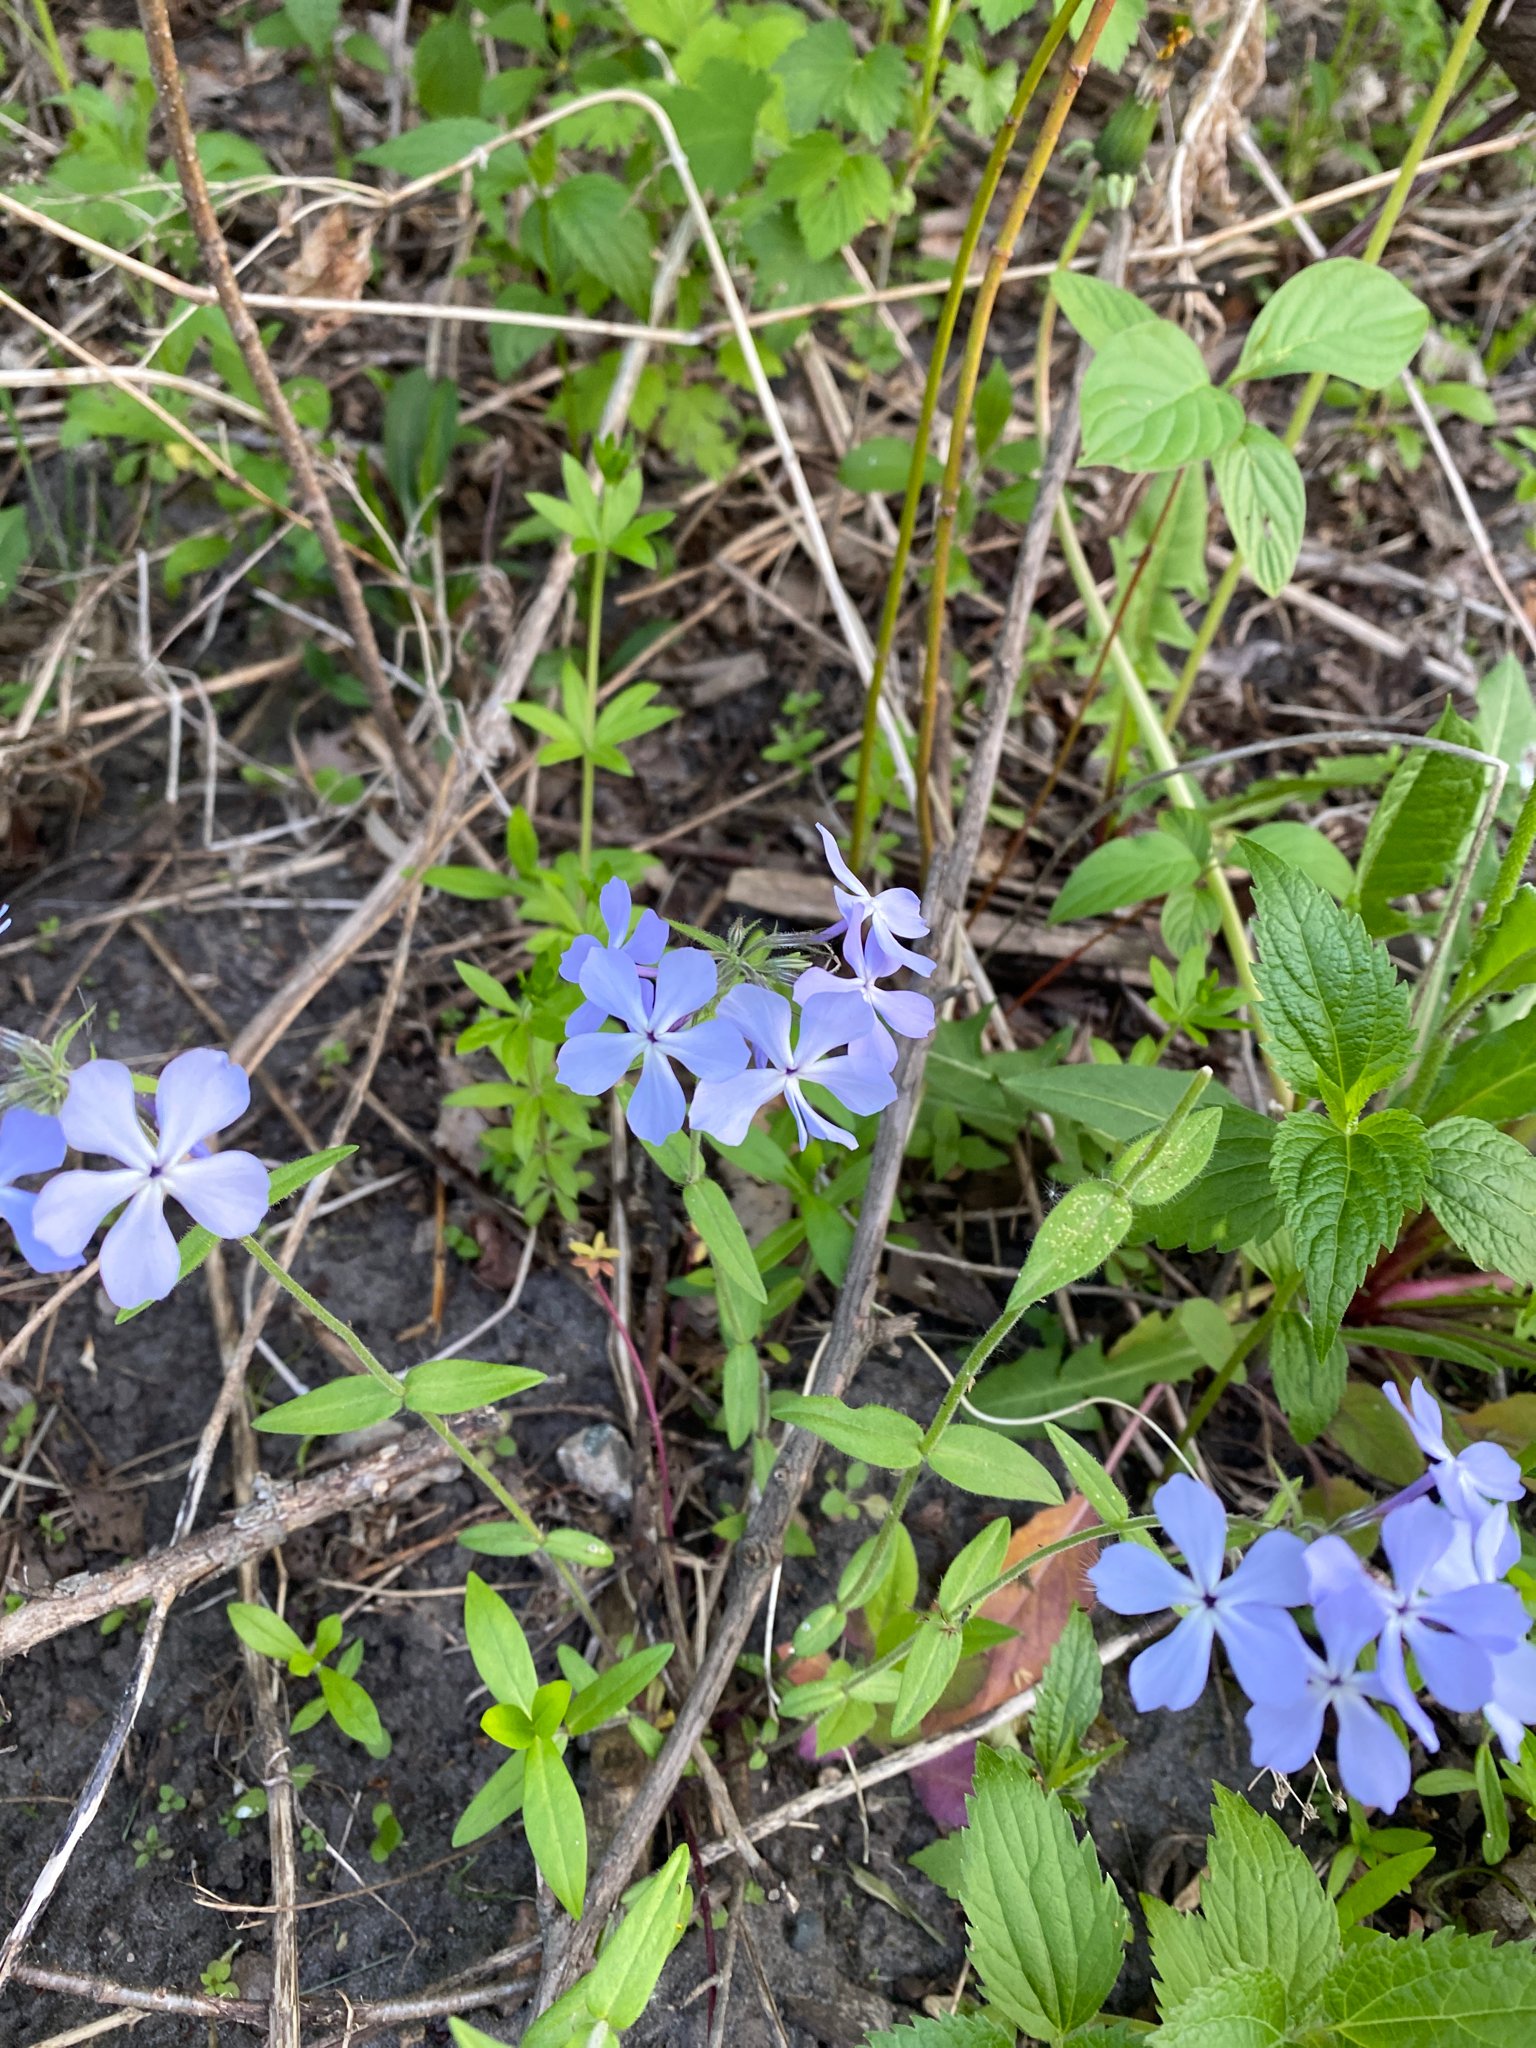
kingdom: Plantae
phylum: Tracheophyta
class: Magnoliopsida
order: Ericales
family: Polemoniaceae
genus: Phlox
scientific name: Phlox divaricata
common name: Blue phlox
